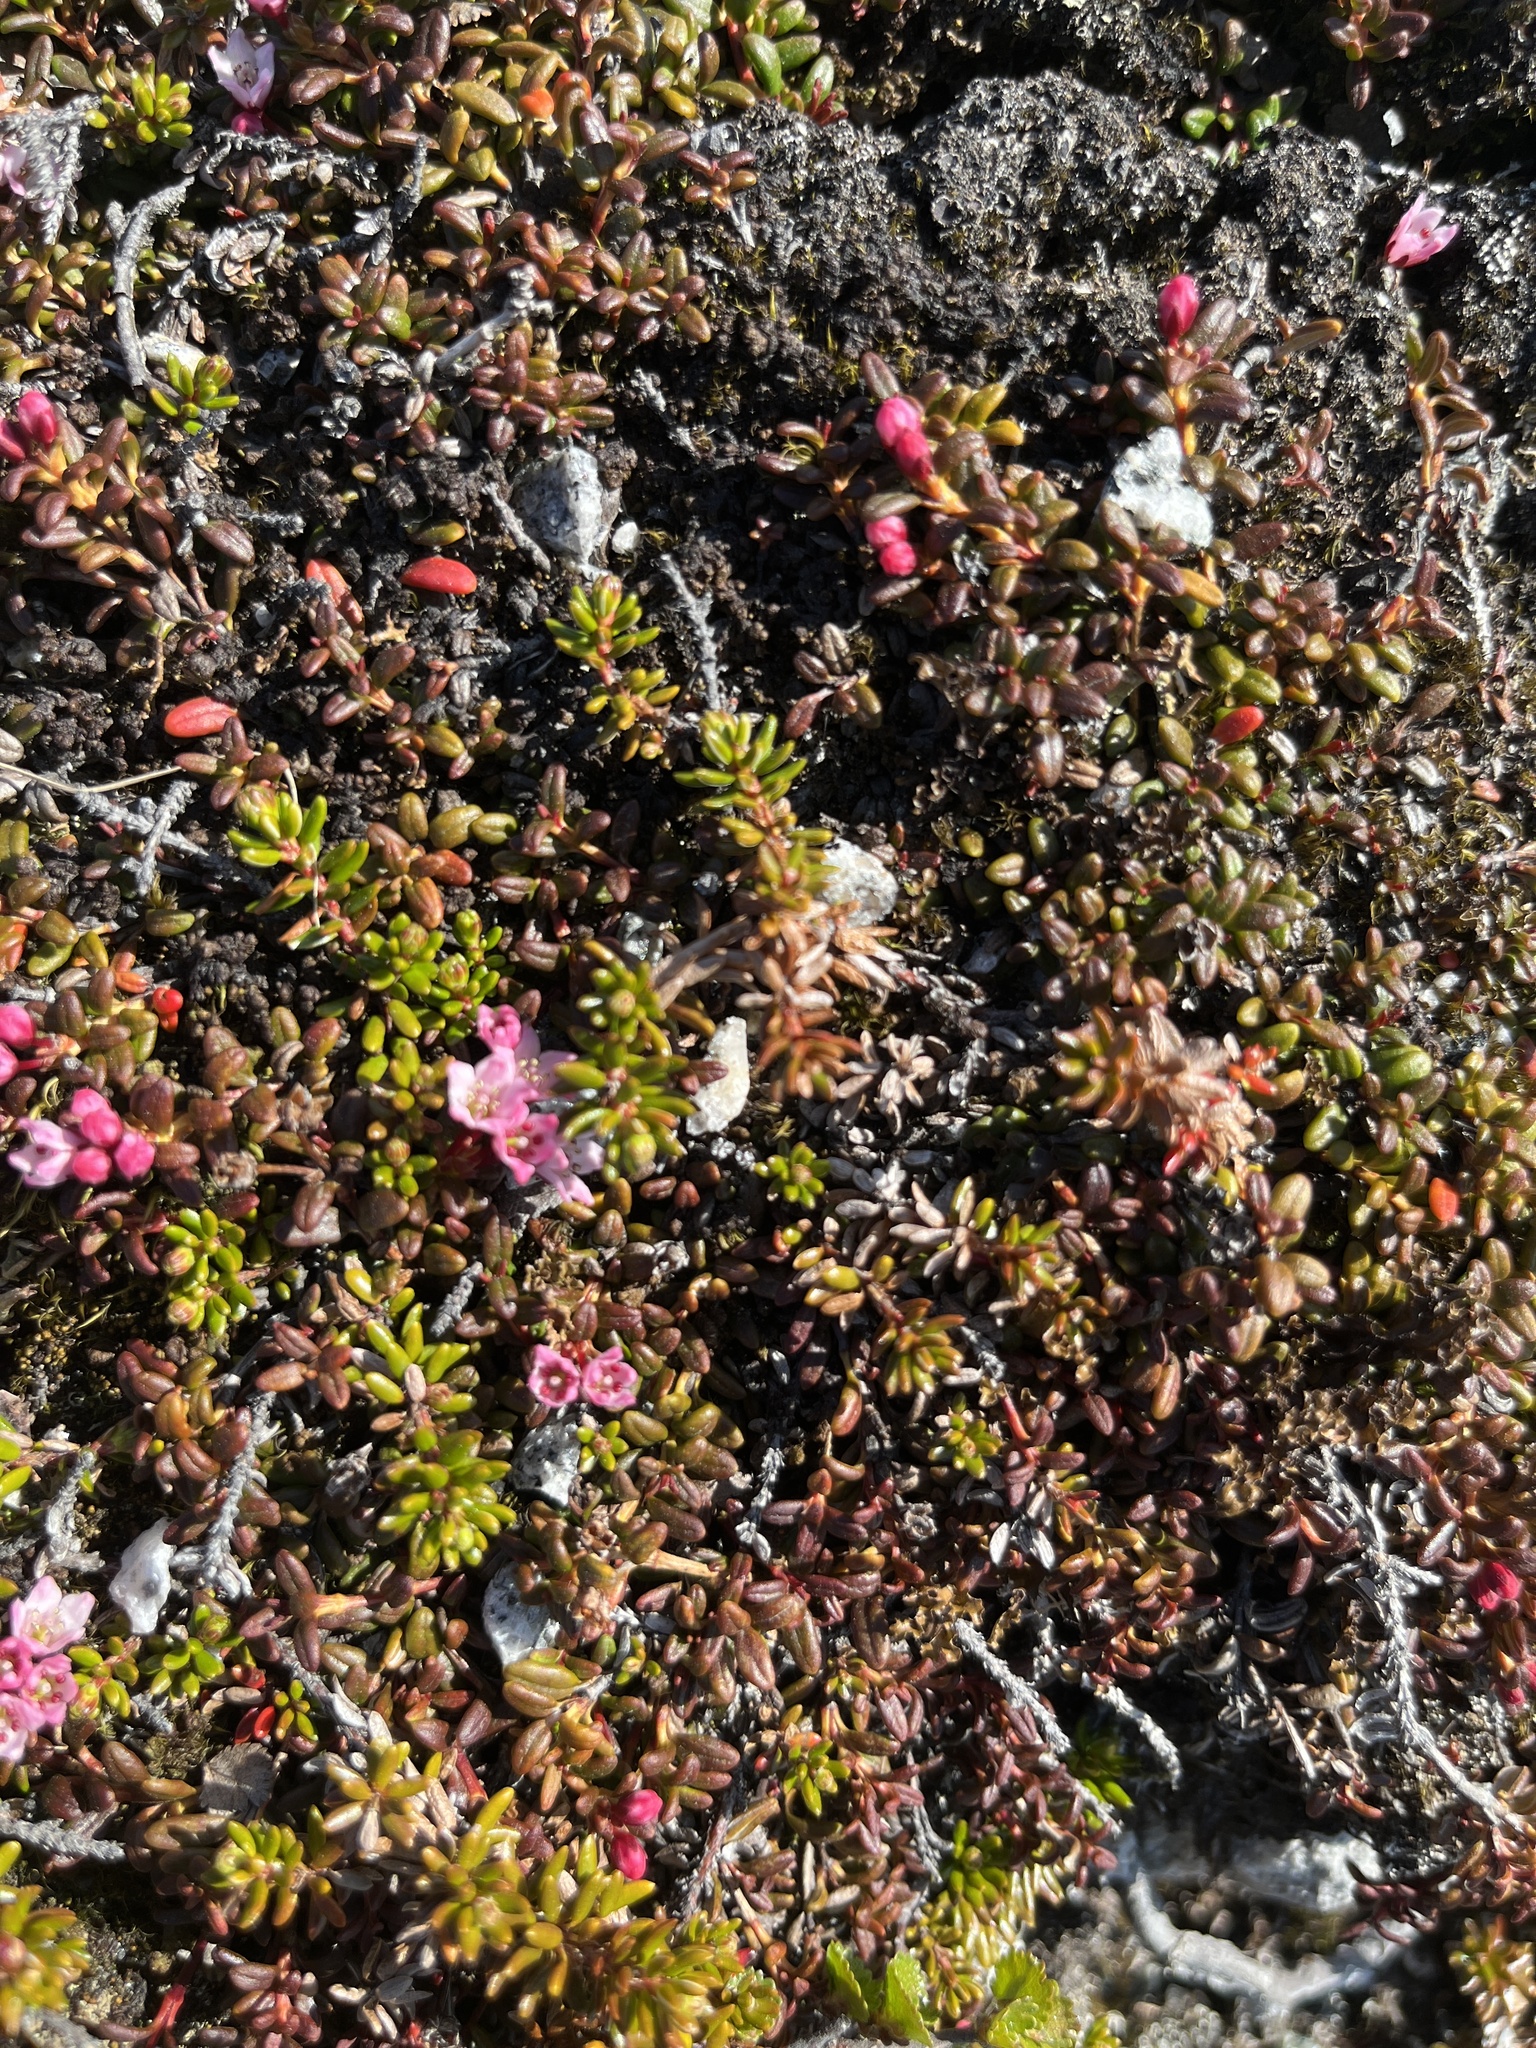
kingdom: Plantae
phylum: Tracheophyta
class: Magnoliopsida
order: Ericales
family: Ericaceae
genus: Kalmia
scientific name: Kalmia procumbens
